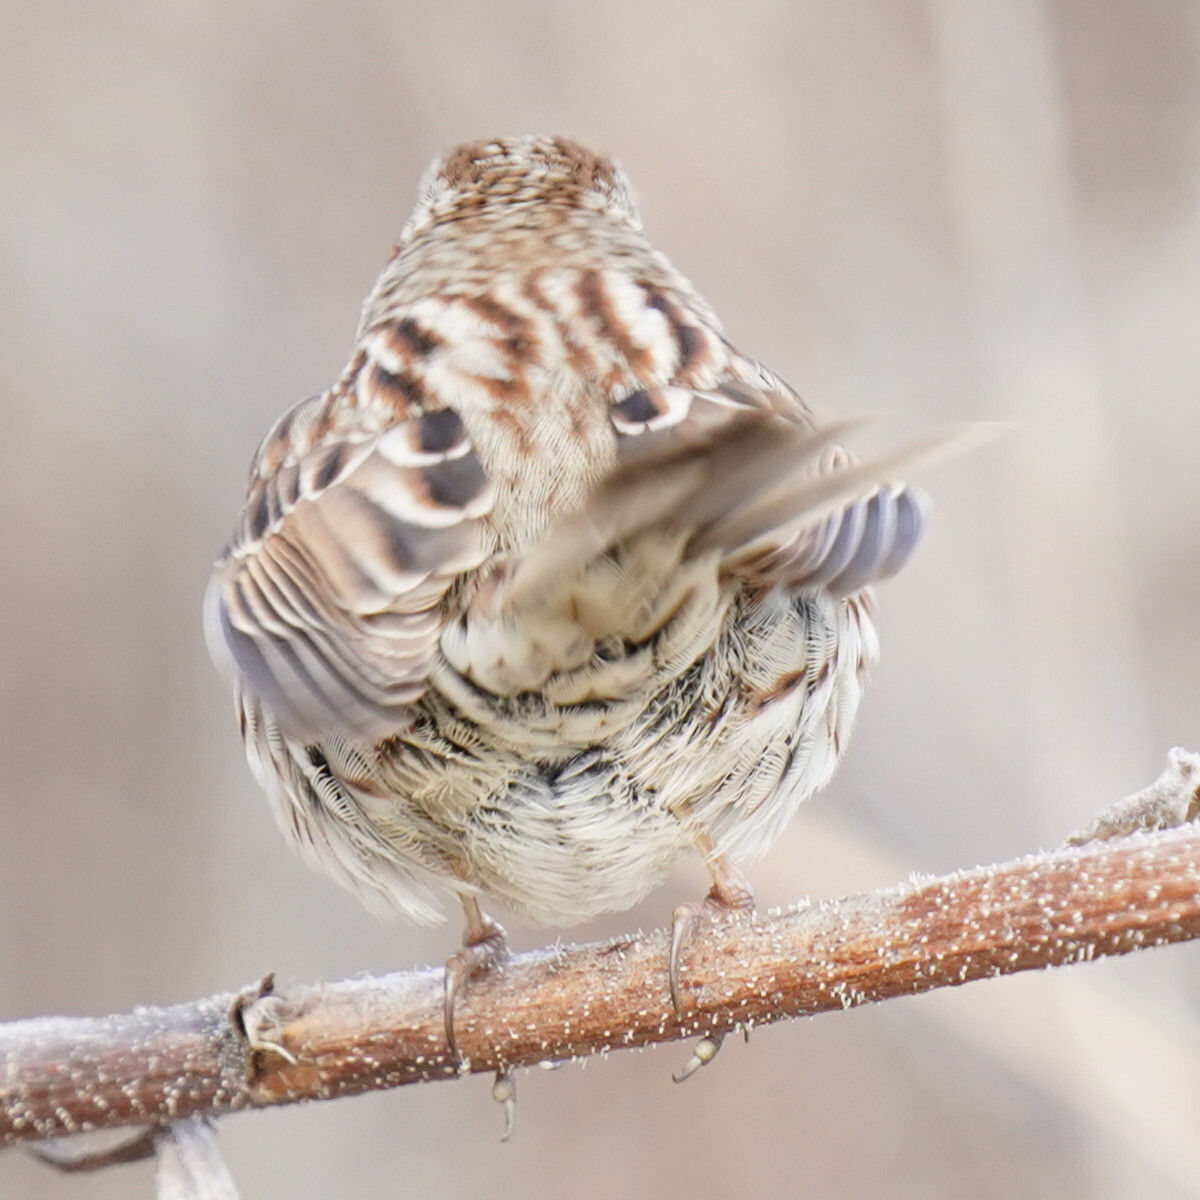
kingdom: Animalia
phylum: Chordata
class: Aves
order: Passeriformes
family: Passerellidae
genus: Melospiza
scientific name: Melospiza melodia
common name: Song sparrow
